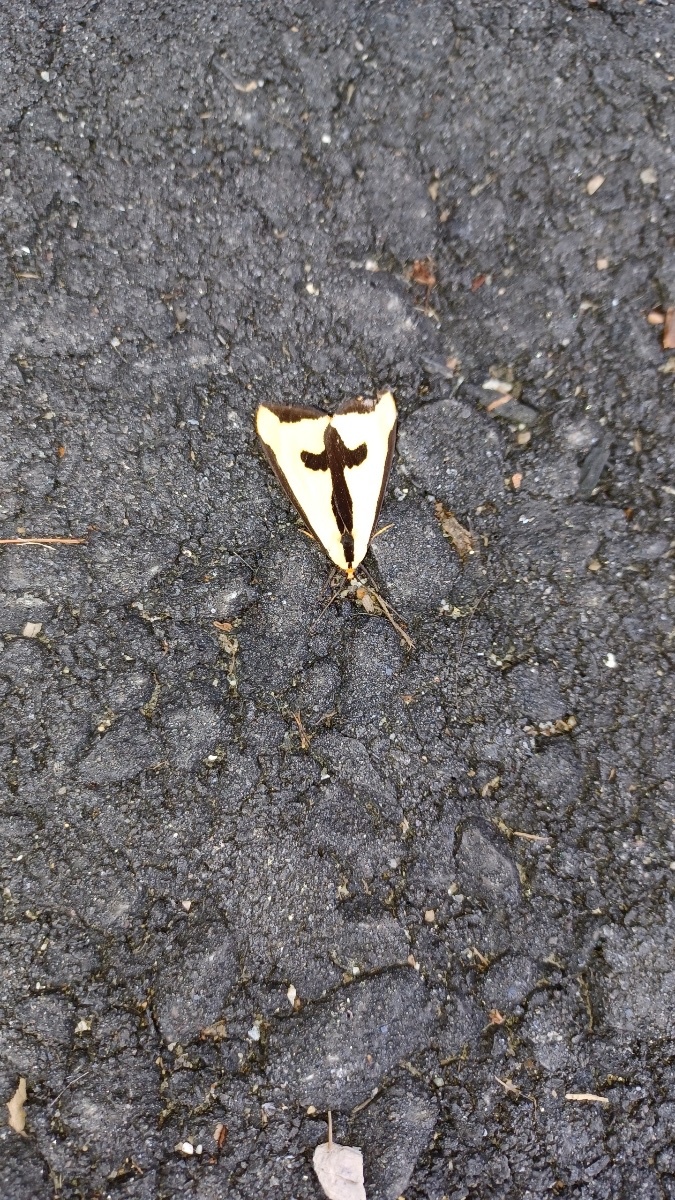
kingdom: Animalia
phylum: Arthropoda
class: Insecta
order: Lepidoptera
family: Erebidae
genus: Haploa
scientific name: Haploa clymene
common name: Clymene moth
